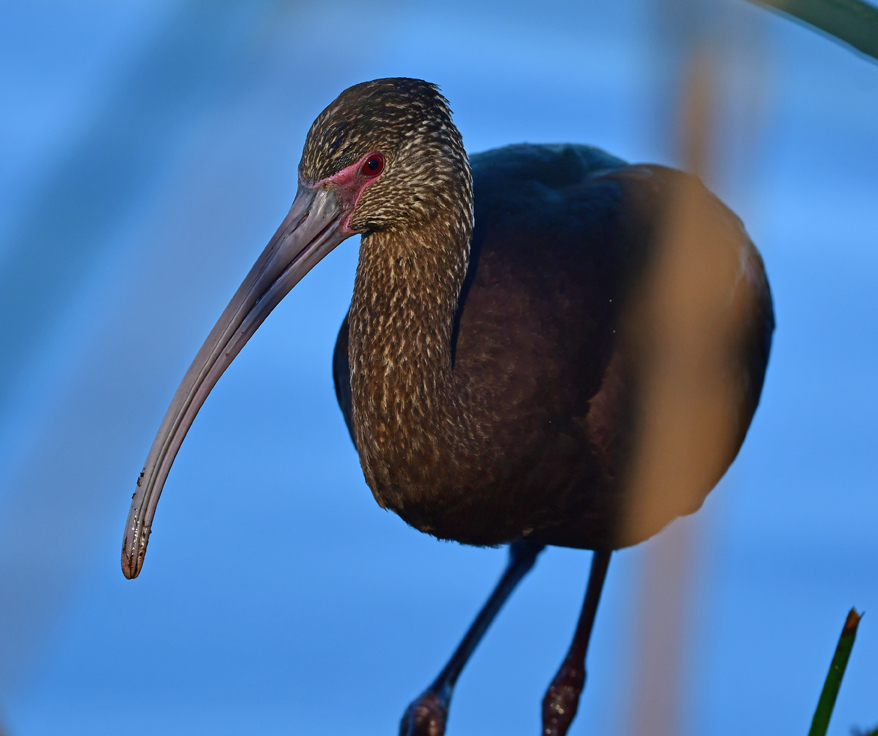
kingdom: Animalia
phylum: Chordata
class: Aves
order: Pelecaniformes
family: Threskiornithidae
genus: Plegadis
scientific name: Plegadis chihi
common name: White-faced ibis
